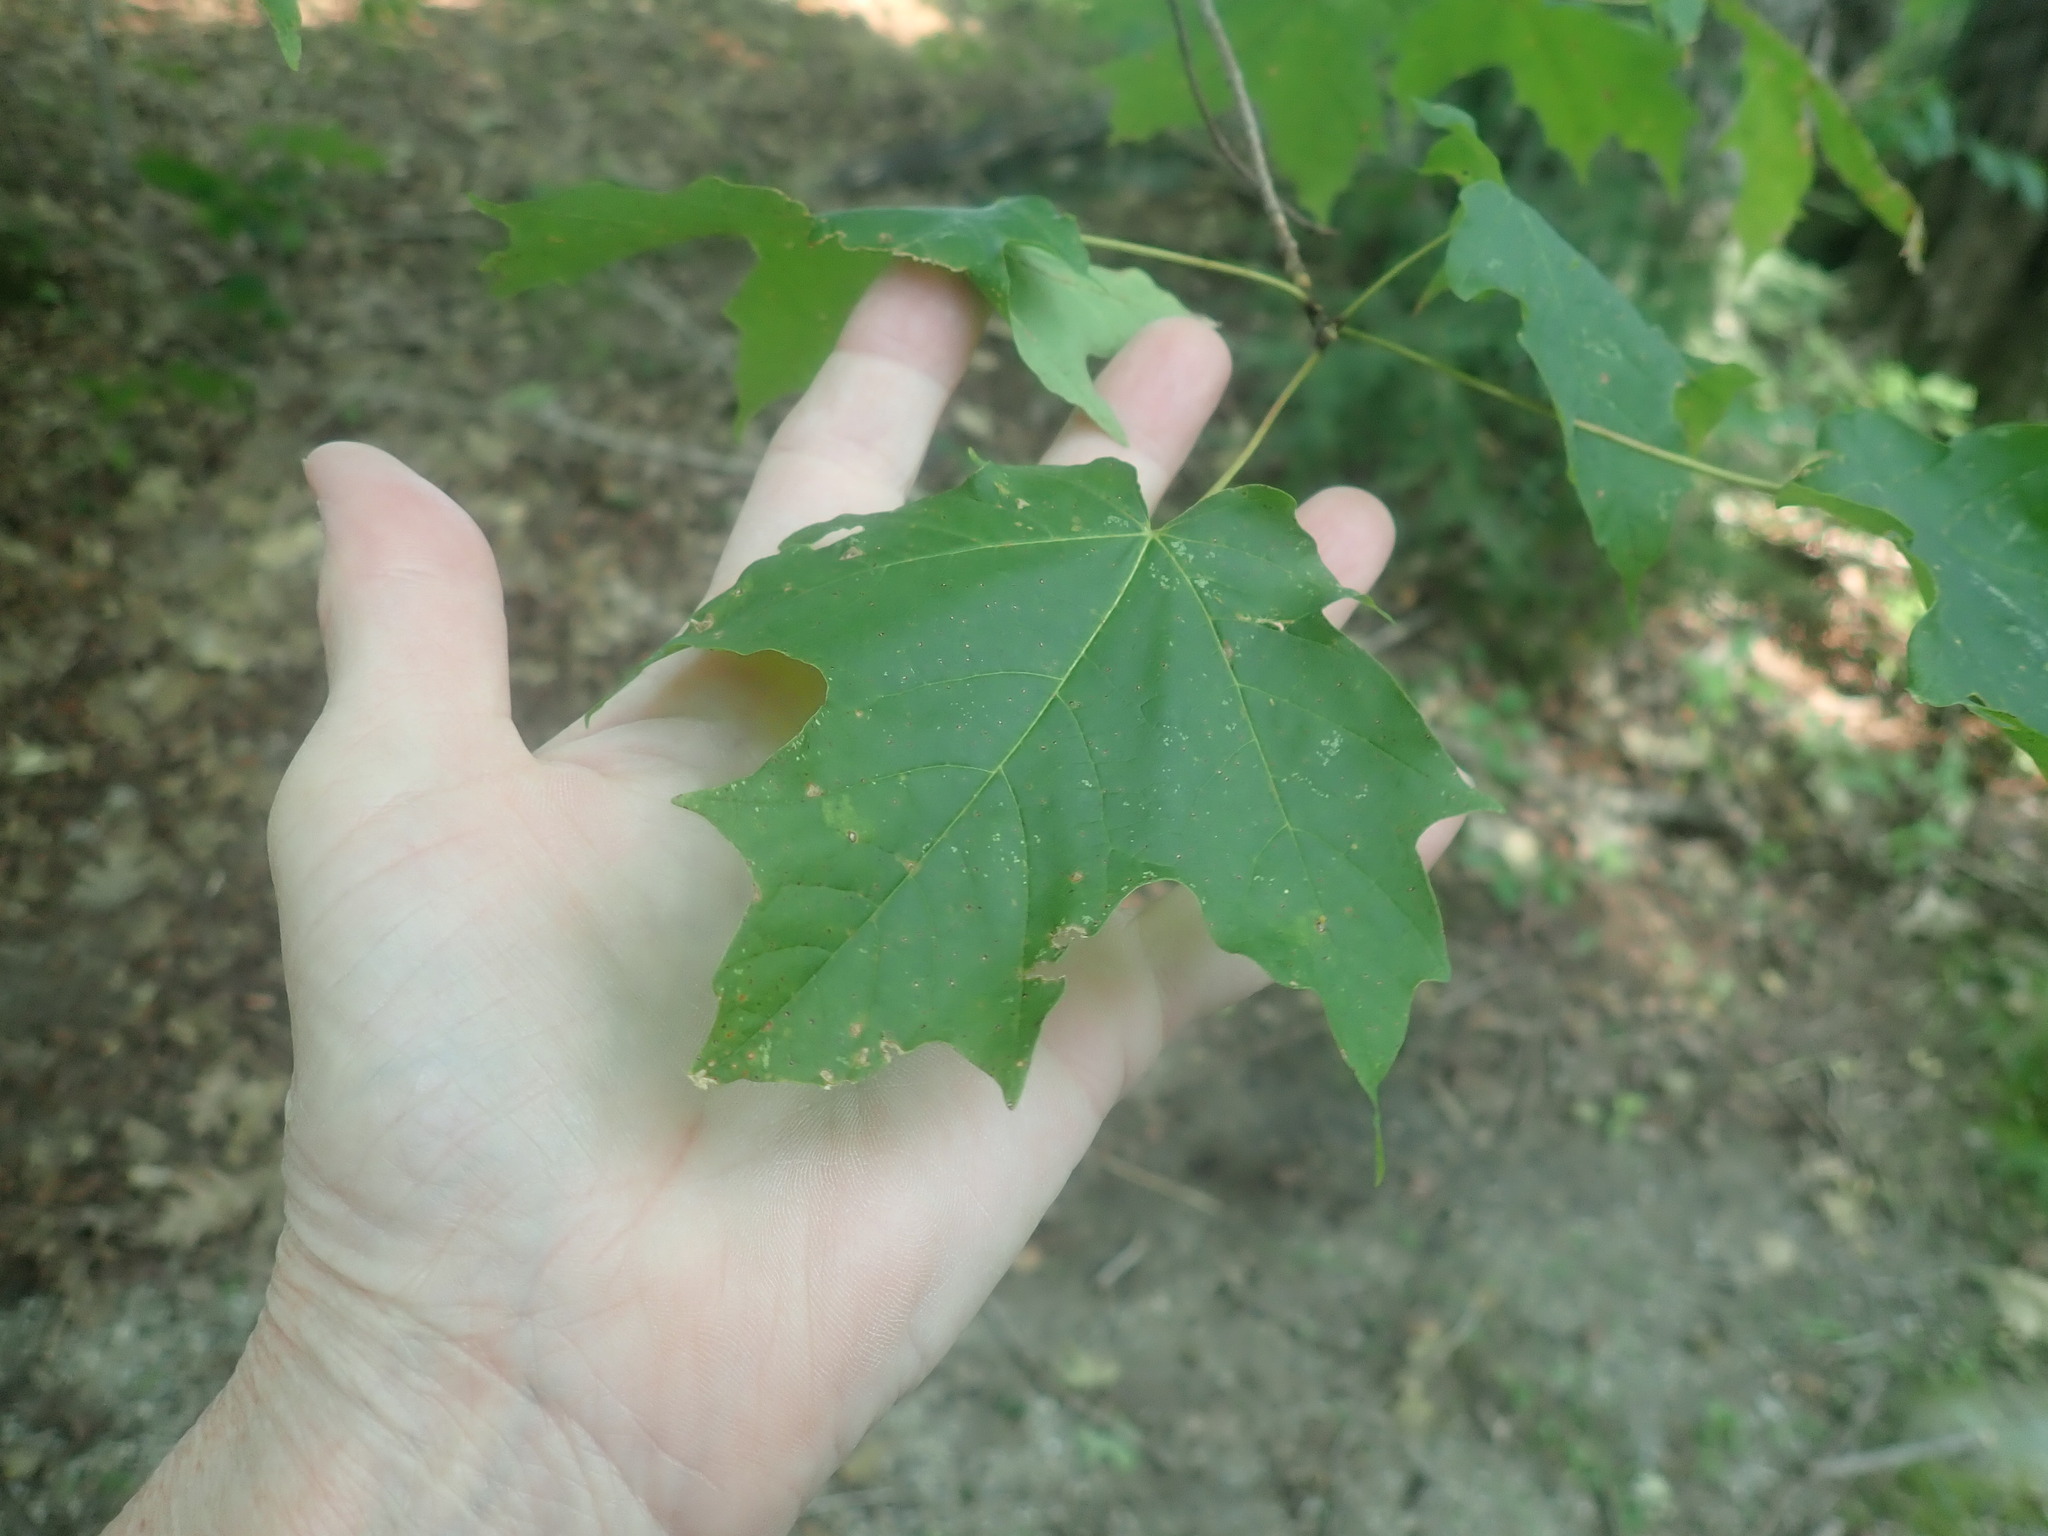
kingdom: Plantae
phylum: Tracheophyta
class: Magnoliopsida
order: Sapindales
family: Sapindaceae
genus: Acer
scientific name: Acer saccharum
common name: Sugar maple
